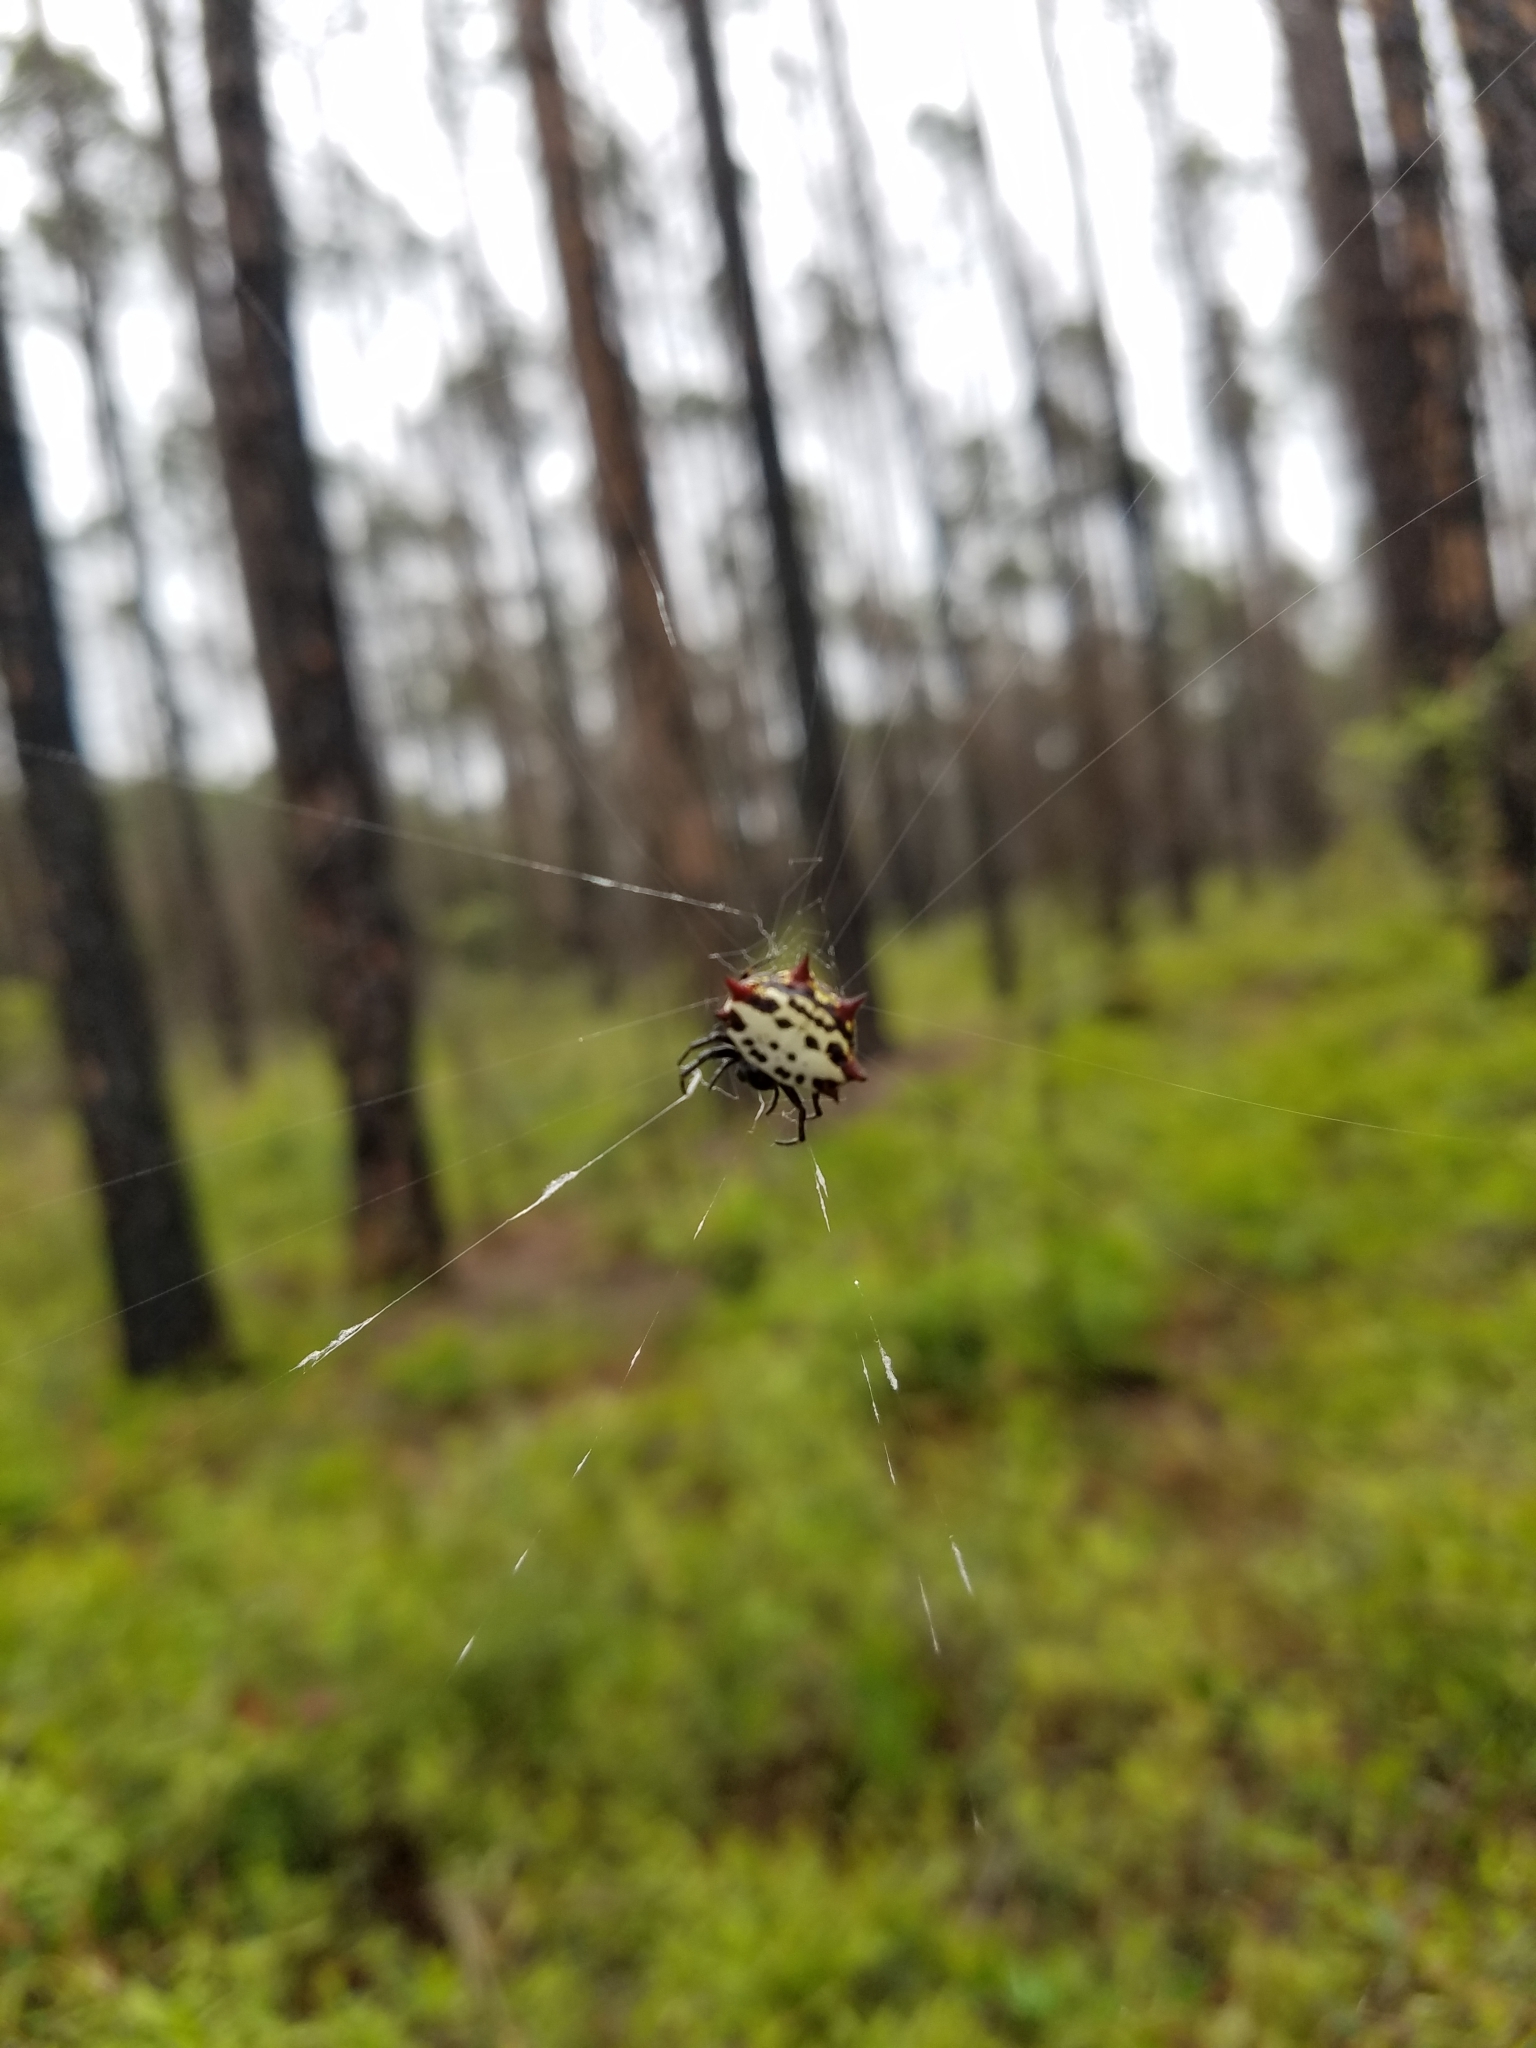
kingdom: Animalia
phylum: Arthropoda
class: Arachnida
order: Araneae
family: Araneidae
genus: Gasteracantha
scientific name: Gasteracantha cancriformis
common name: Orb weavers
